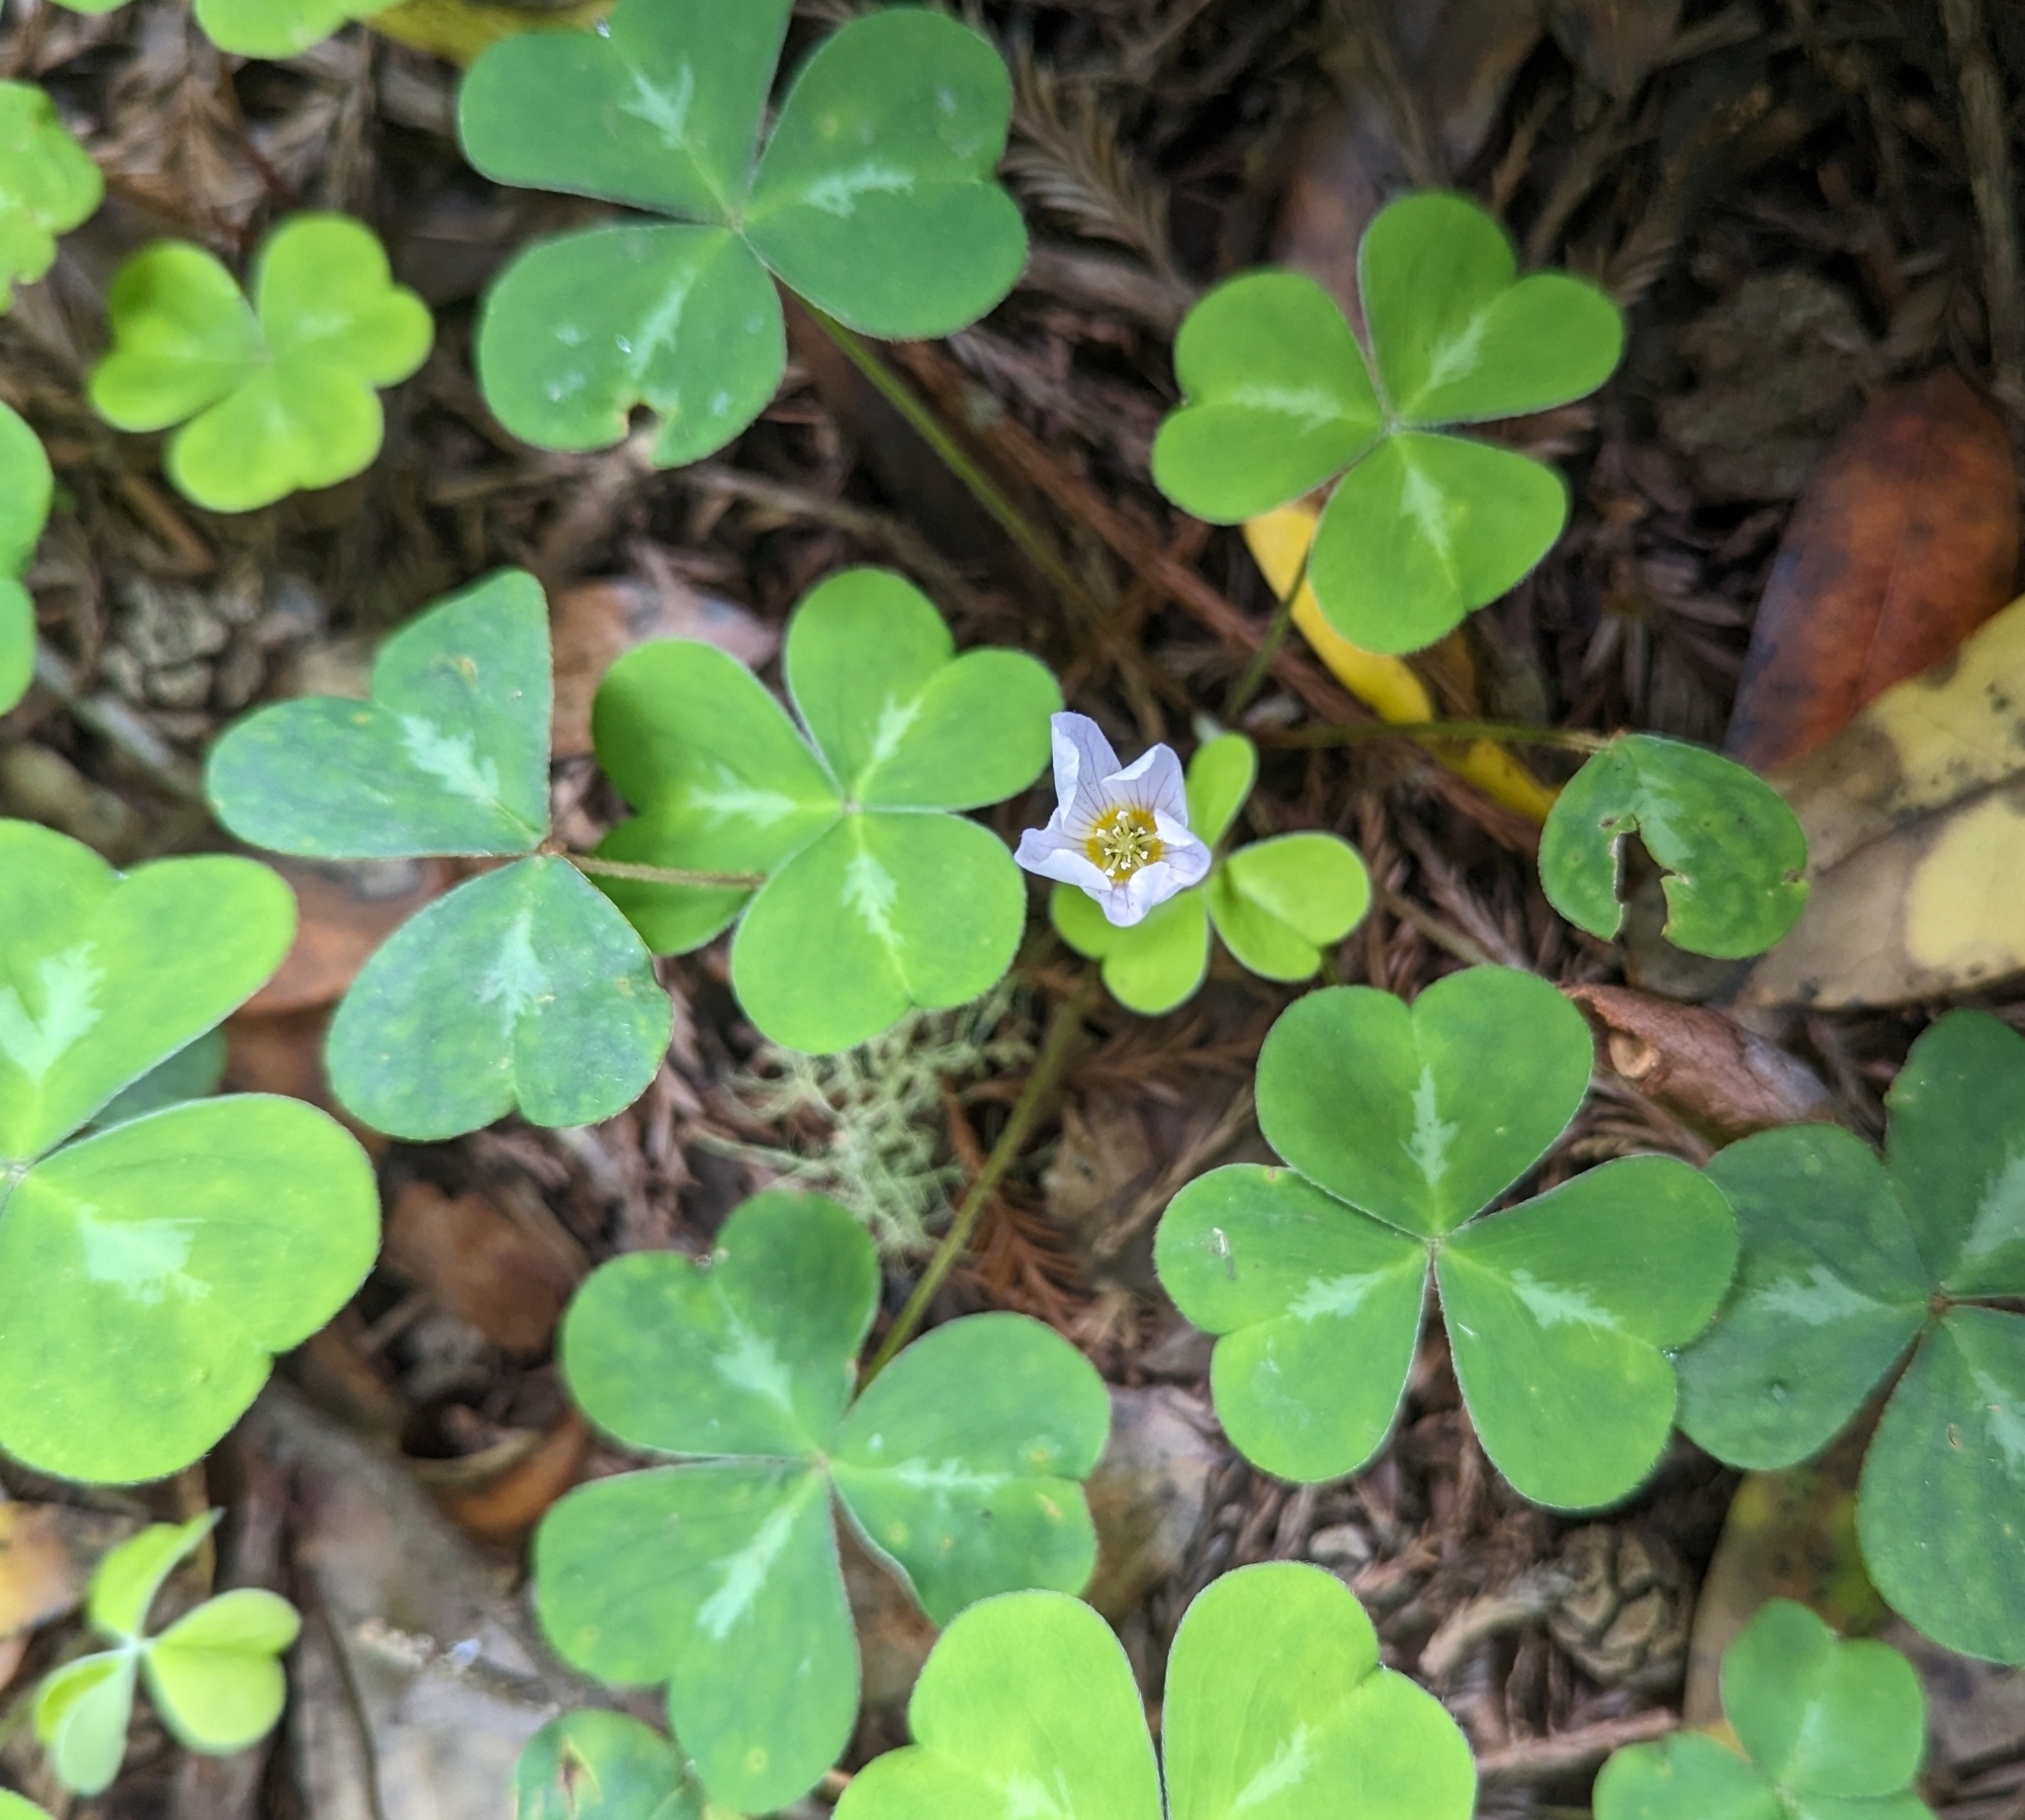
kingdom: Plantae
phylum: Tracheophyta
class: Magnoliopsida
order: Oxalidales
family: Oxalidaceae
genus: Oxalis
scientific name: Oxalis oregana
